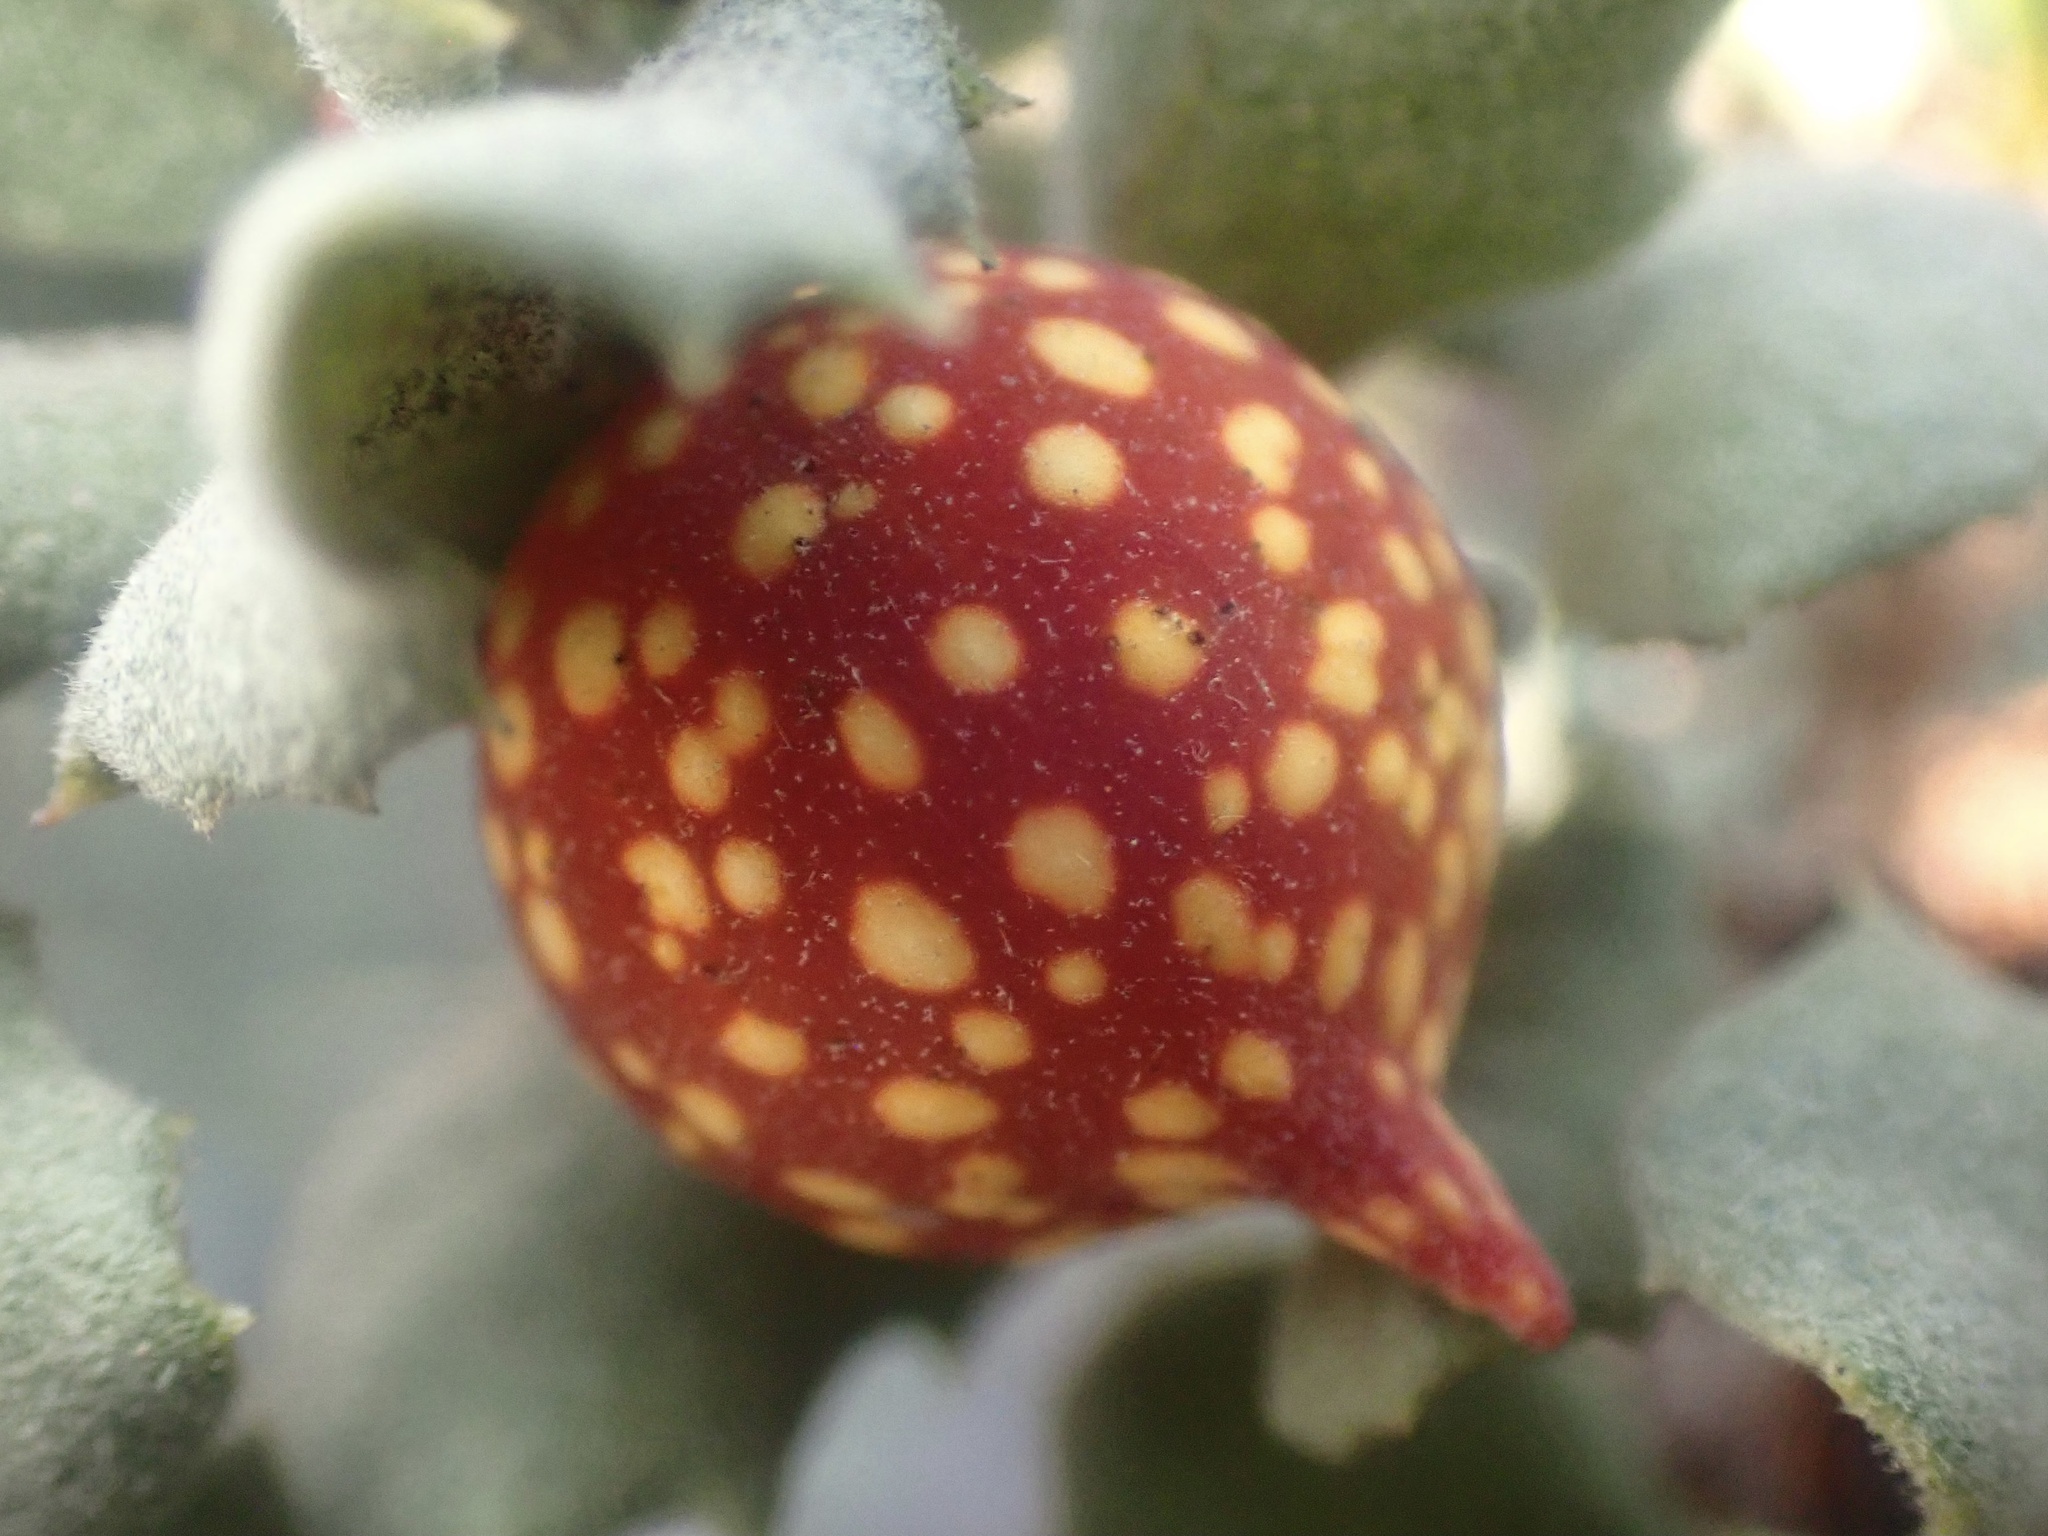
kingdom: Animalia
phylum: Arthropoda
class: Insecta
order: Hymenoptera
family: Cynipidae
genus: Burnettweldia
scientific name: Burnettweldia
